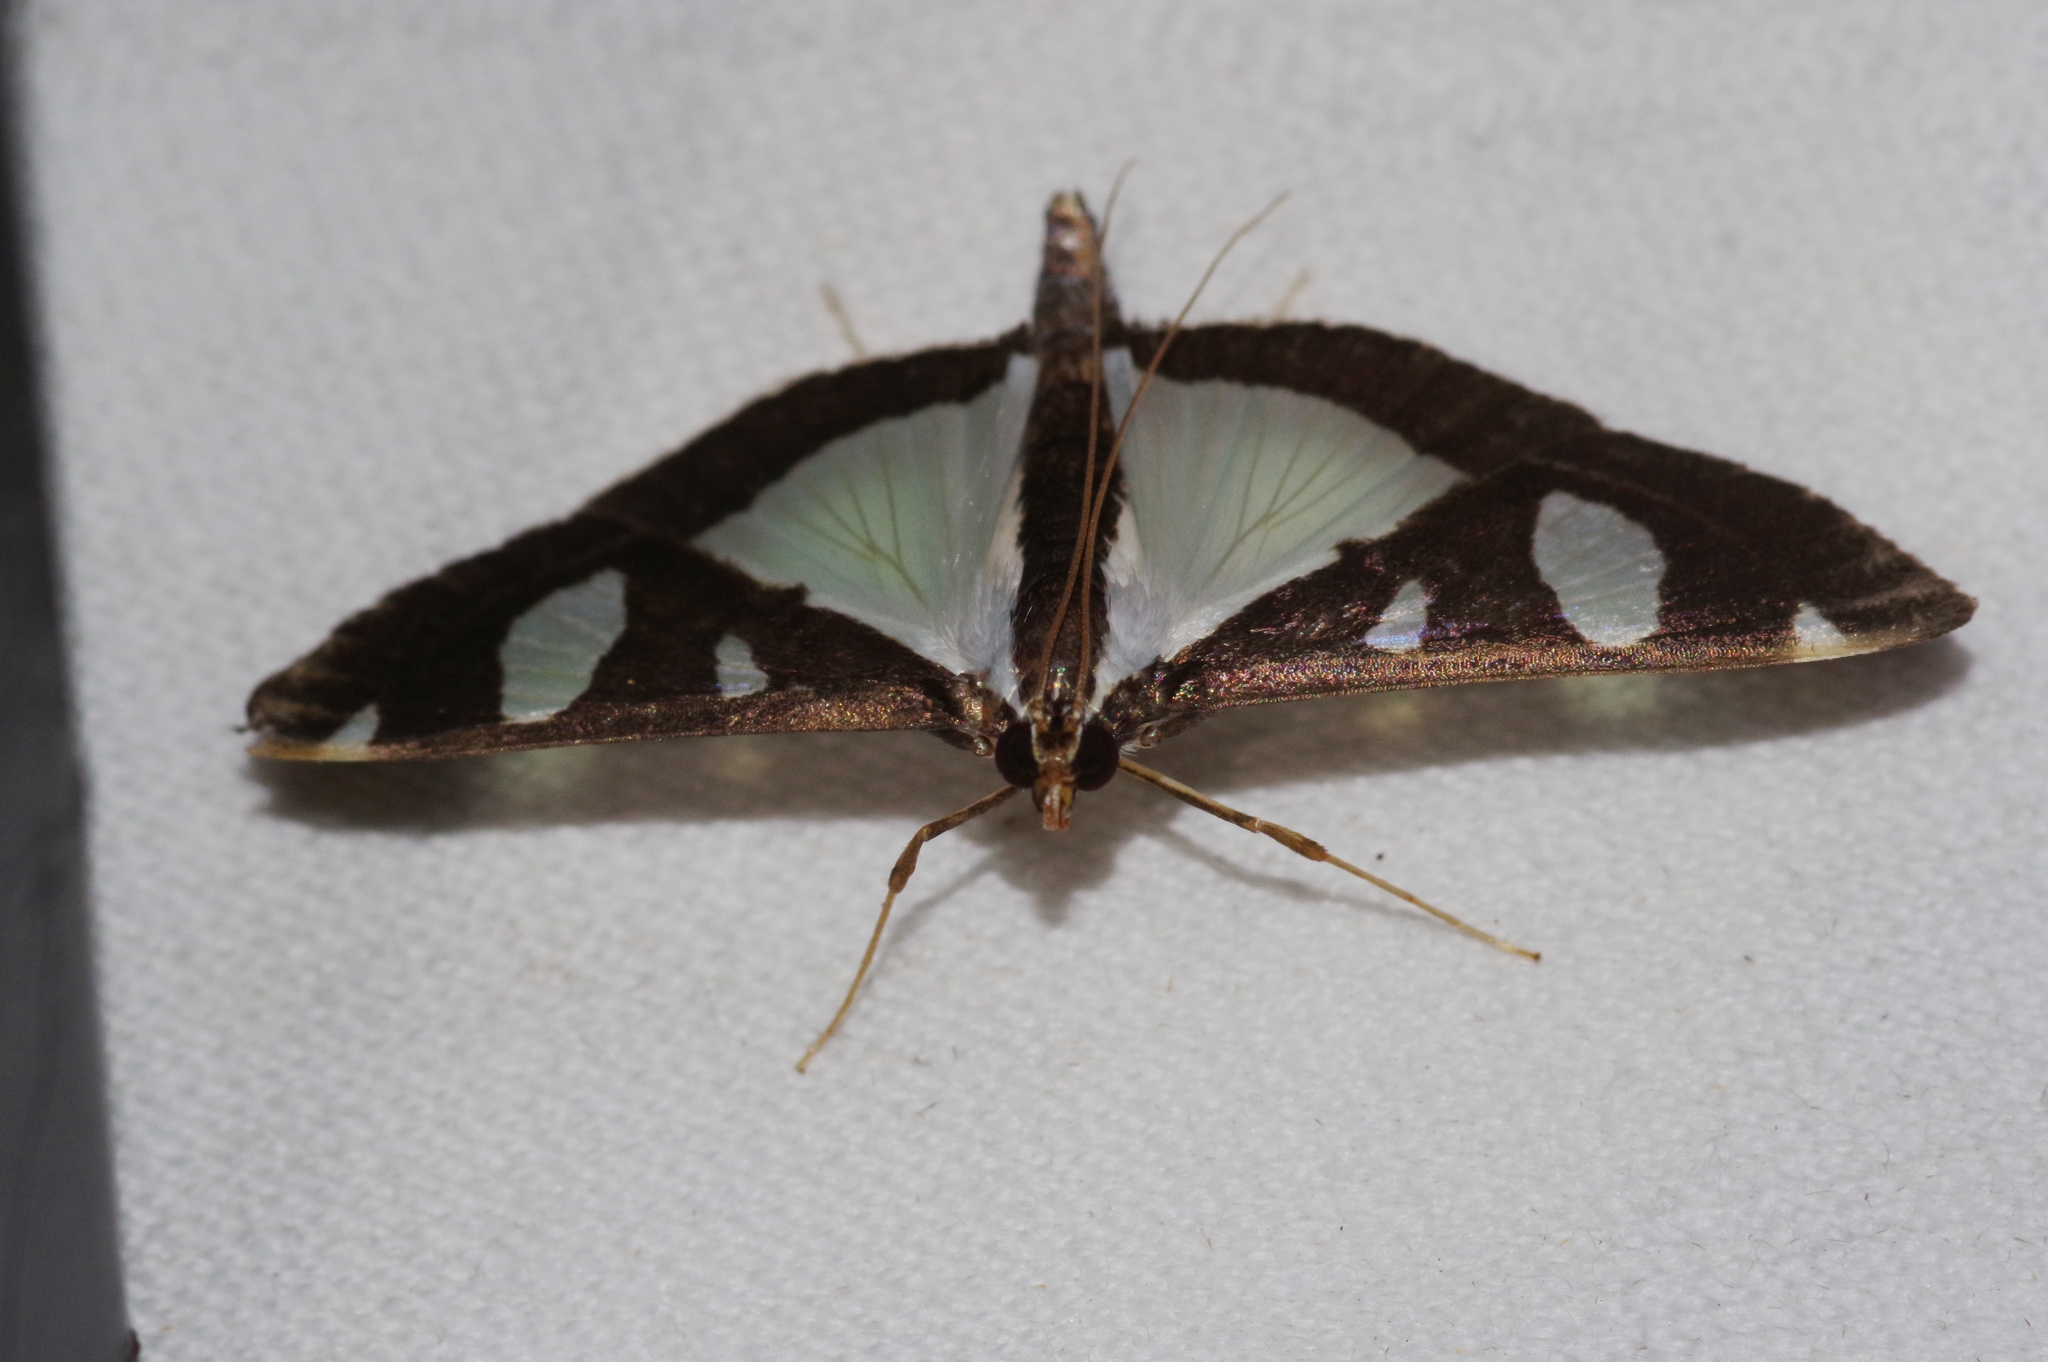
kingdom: Animalia
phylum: Arthropoda
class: Insecta
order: Lepidoptera
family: Crambidae
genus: Glyphodes
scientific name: Glyphodes actorionalis
